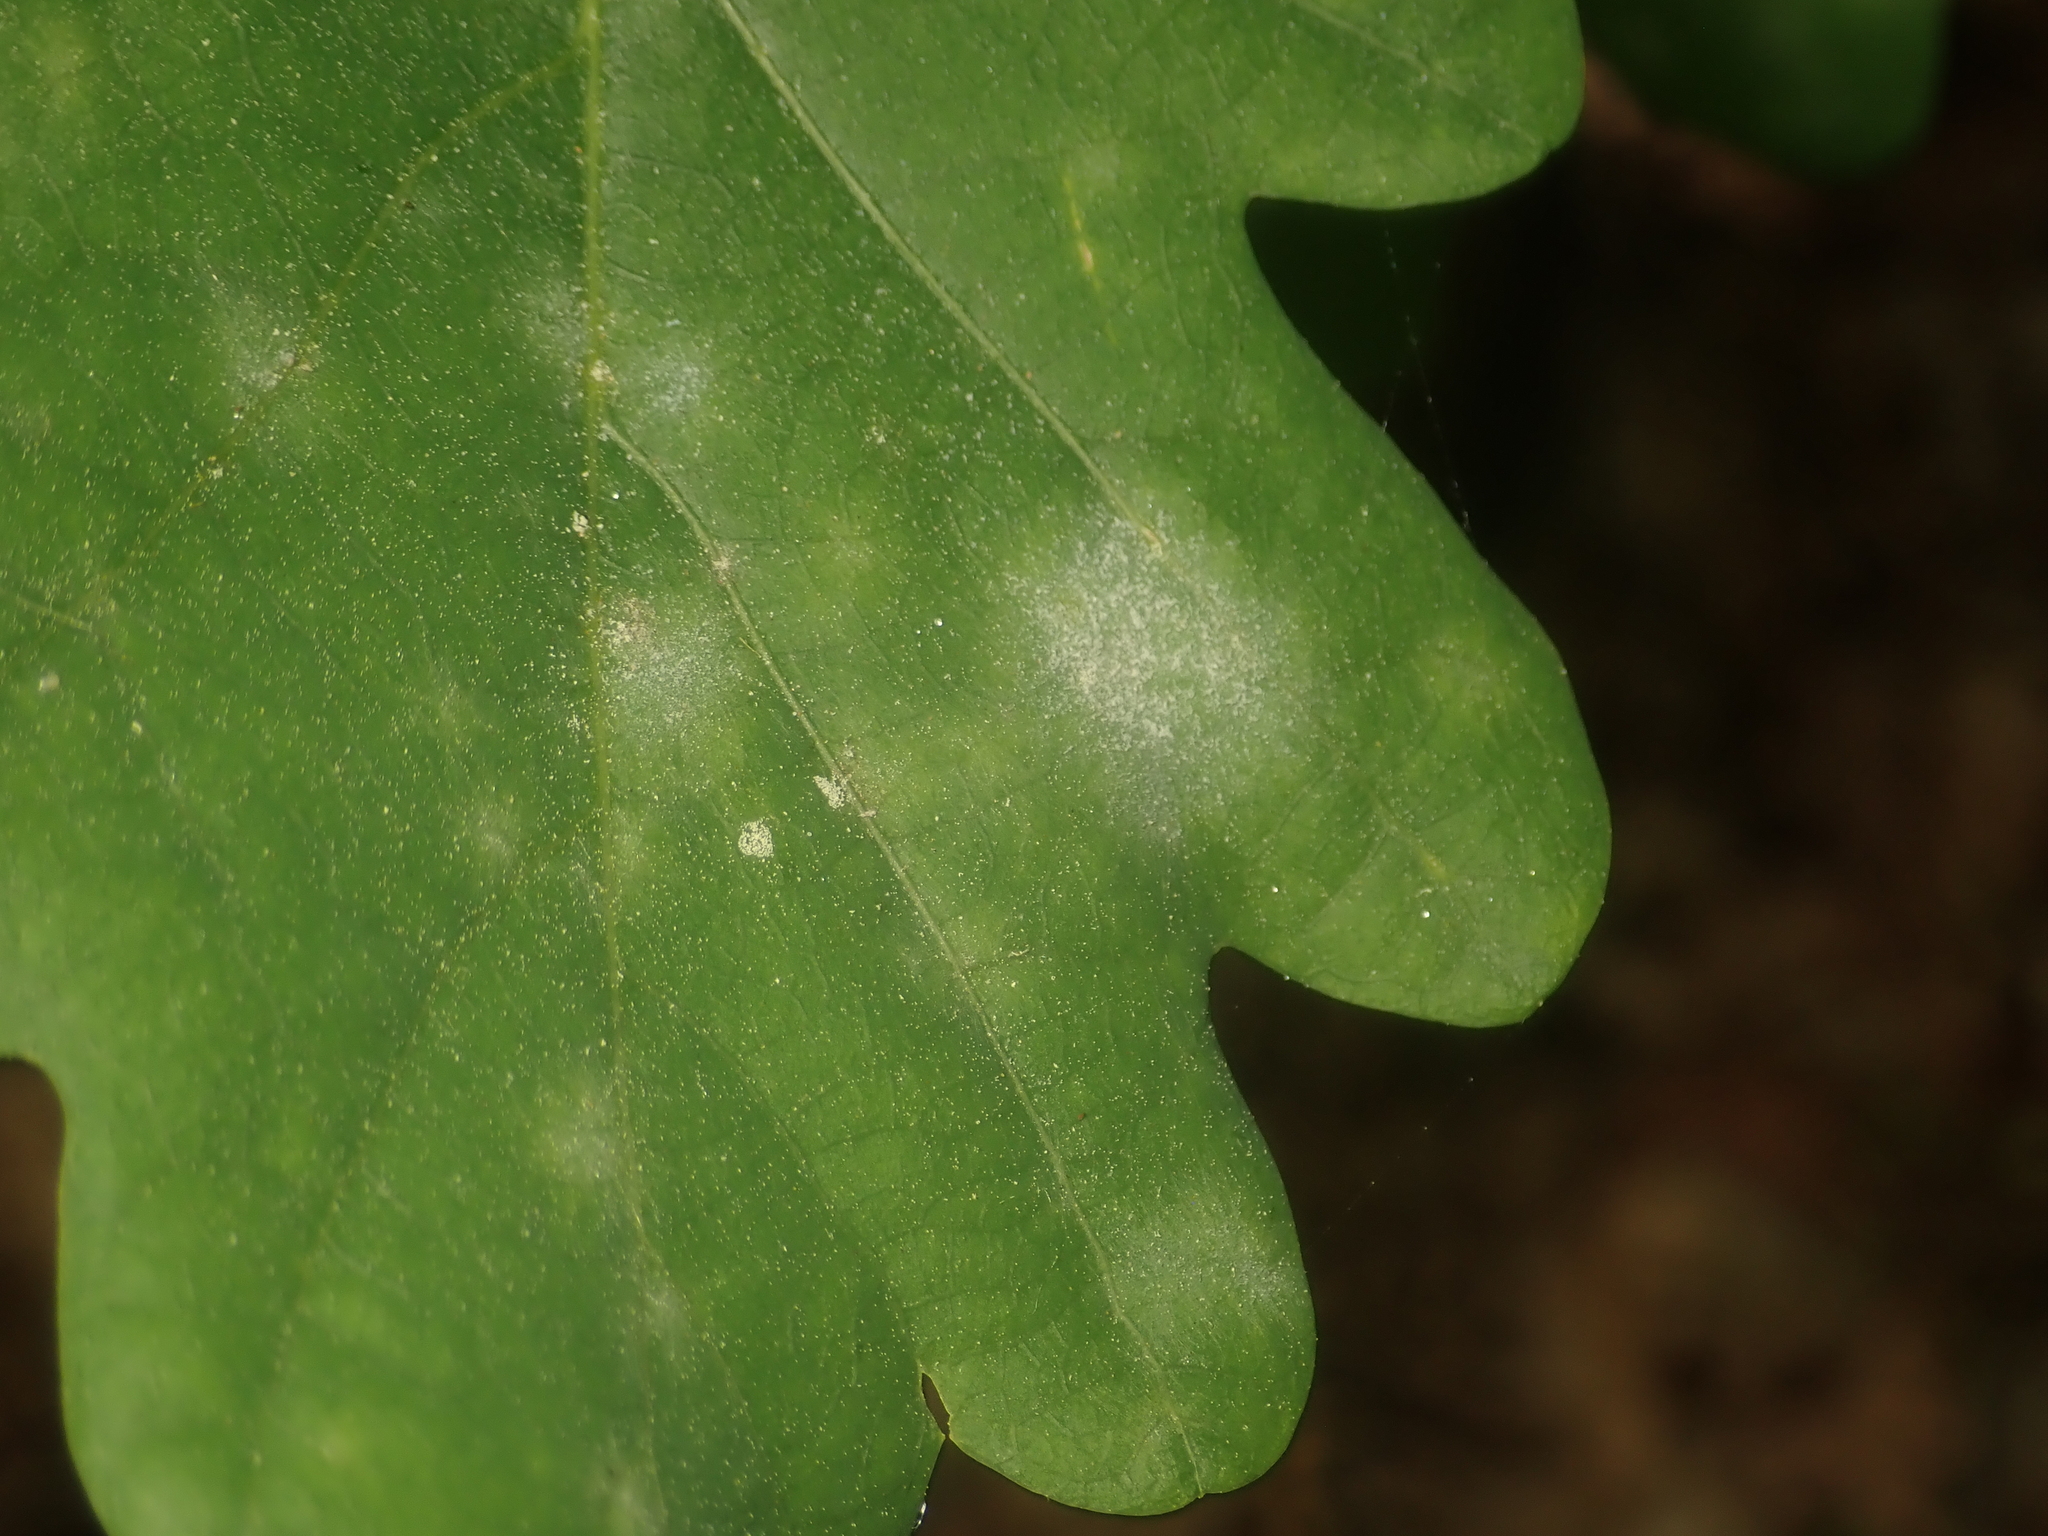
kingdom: Fungi
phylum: Ascomycota
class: Leotiomycetes
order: Helotiales
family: Erysiphaceae
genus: Erysiphe
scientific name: Erysiphe
